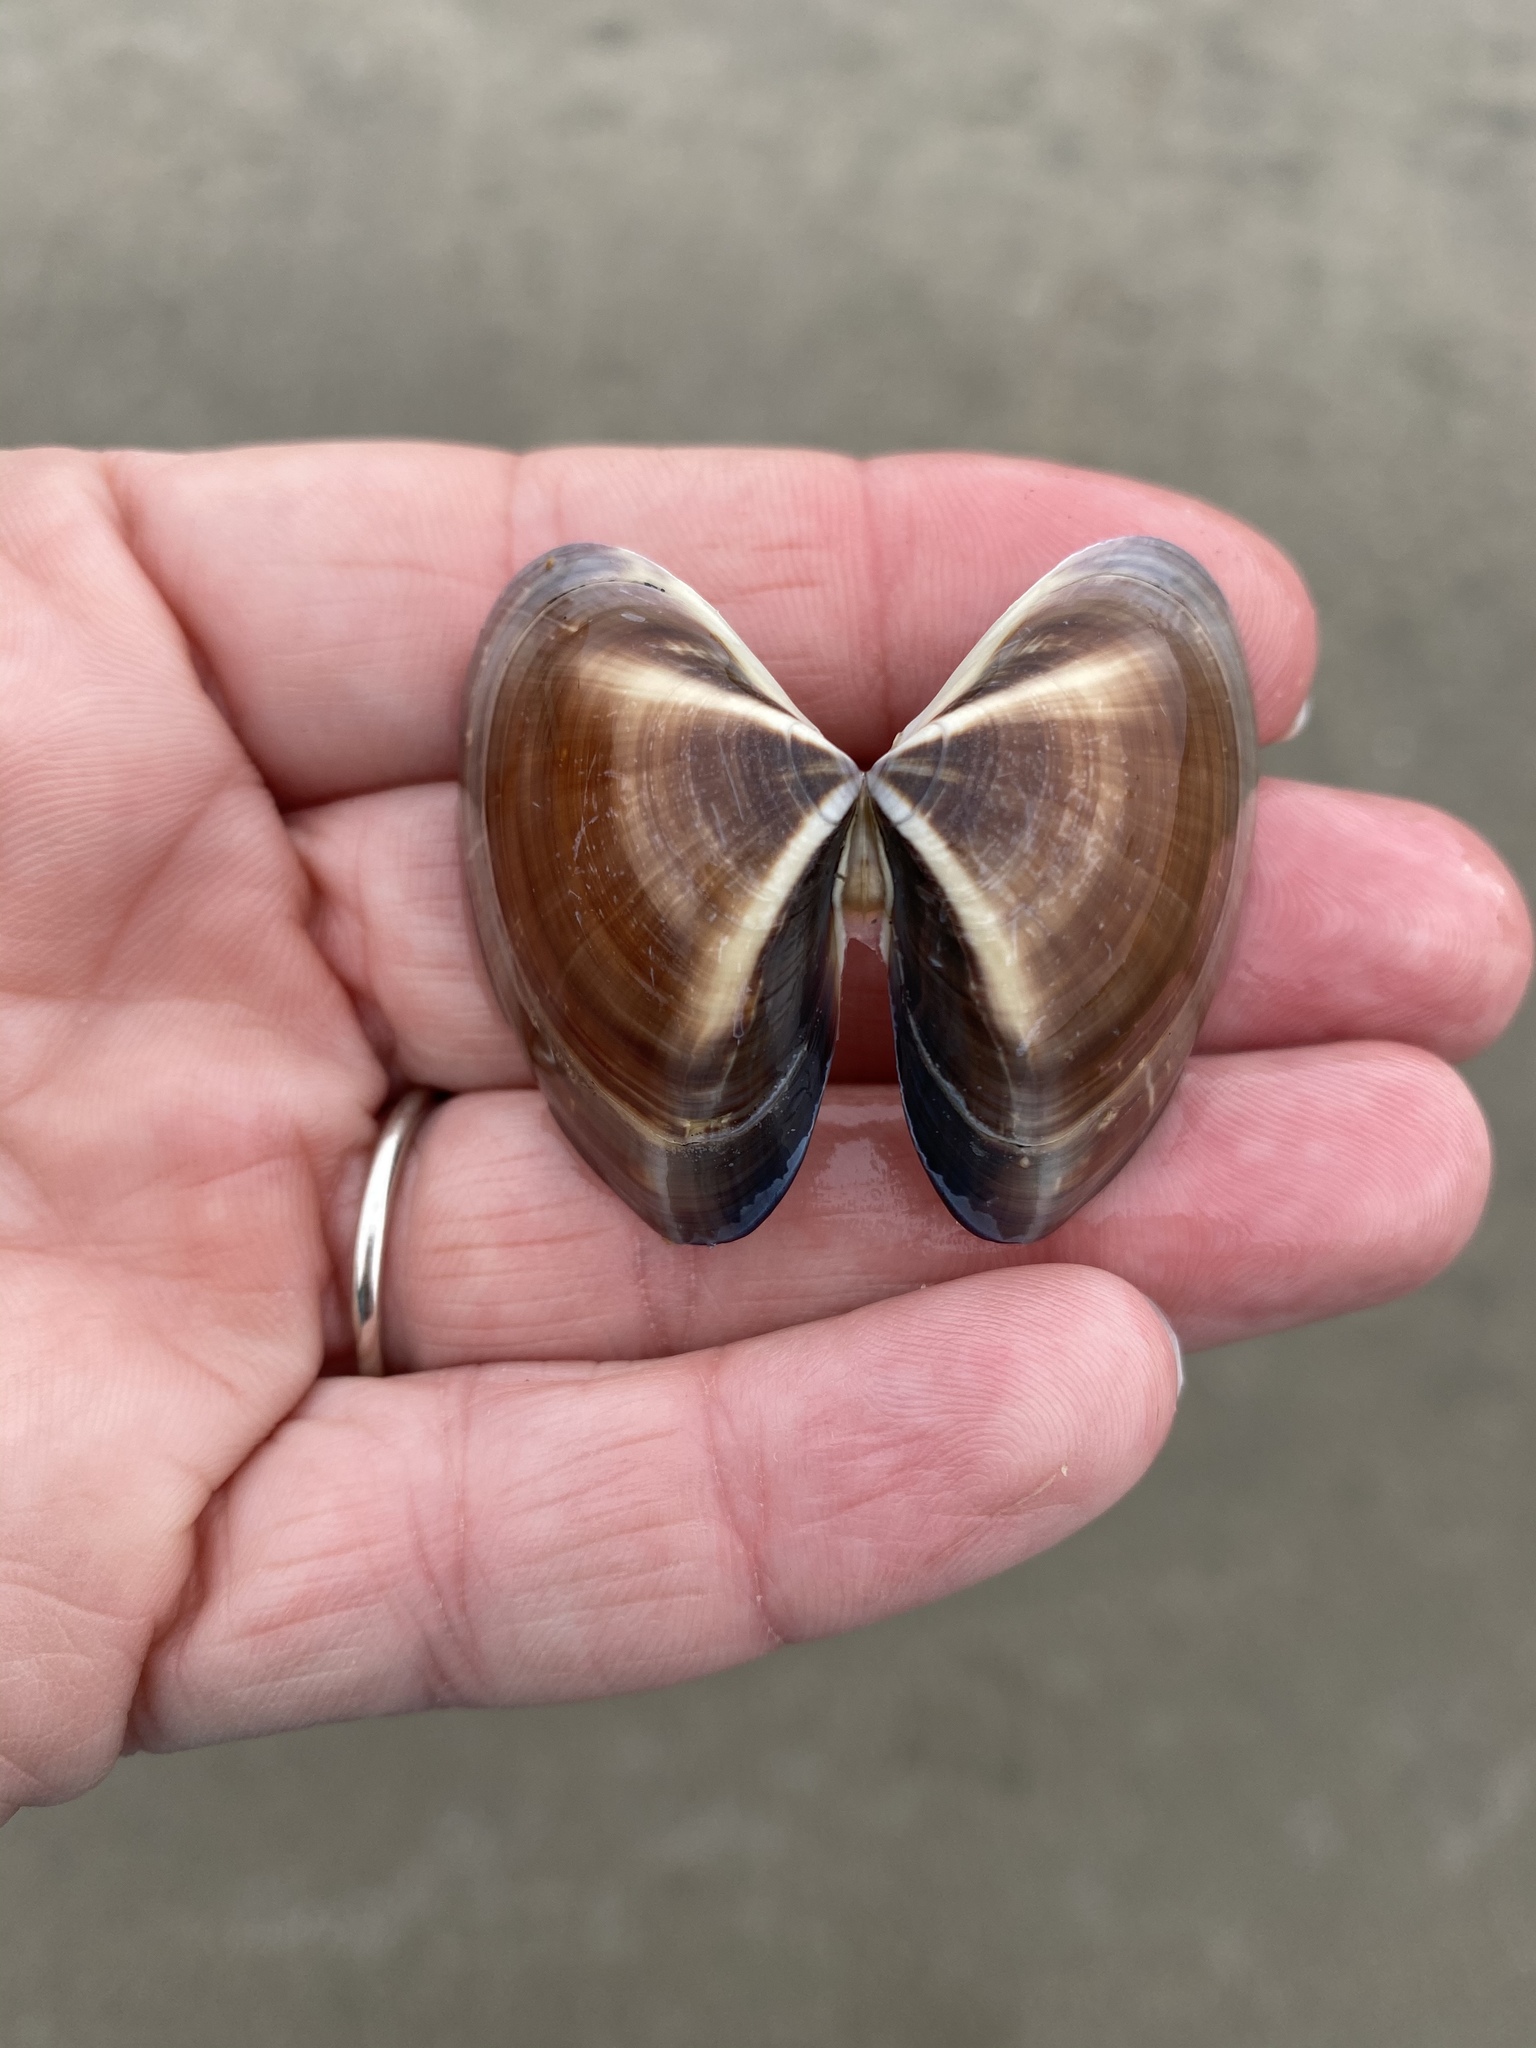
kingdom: Animalia
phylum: Mollusca
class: Bivalvia
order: Venerida
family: Veneridae
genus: Tivela
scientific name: Tivela stultorum
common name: Pismo clam
